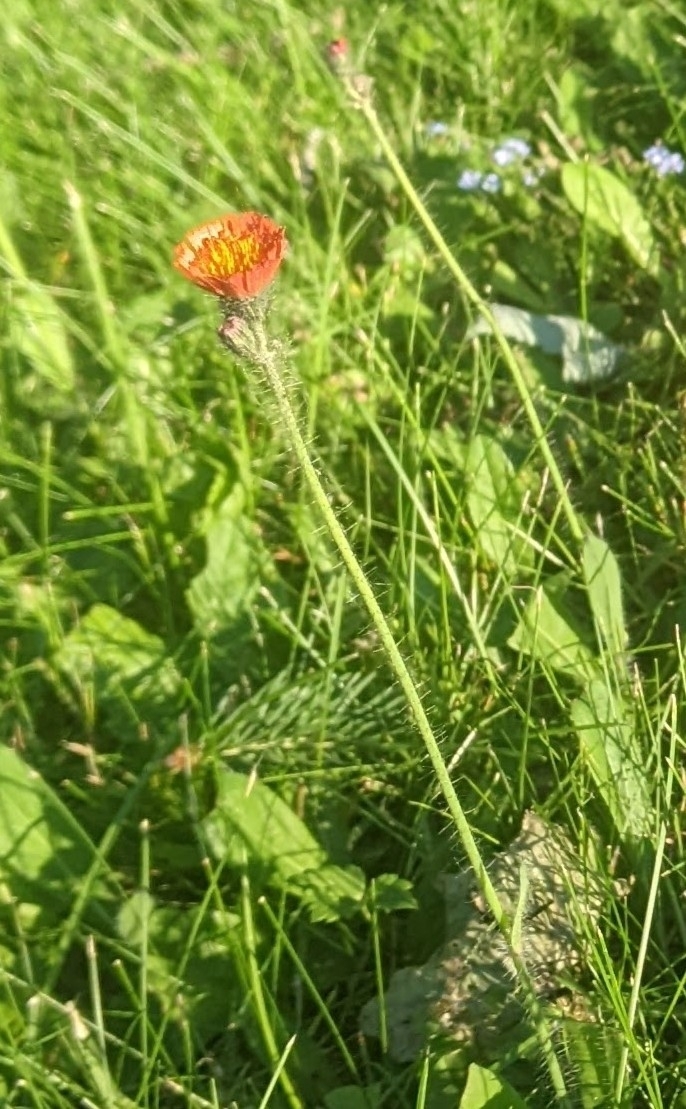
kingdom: Plantae
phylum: Tracheophyta
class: Magnoliopsida
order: Asterales
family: Asteraceae
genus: Pilosella
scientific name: Pilosella aurantiaca
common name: Fox-and-cubs
